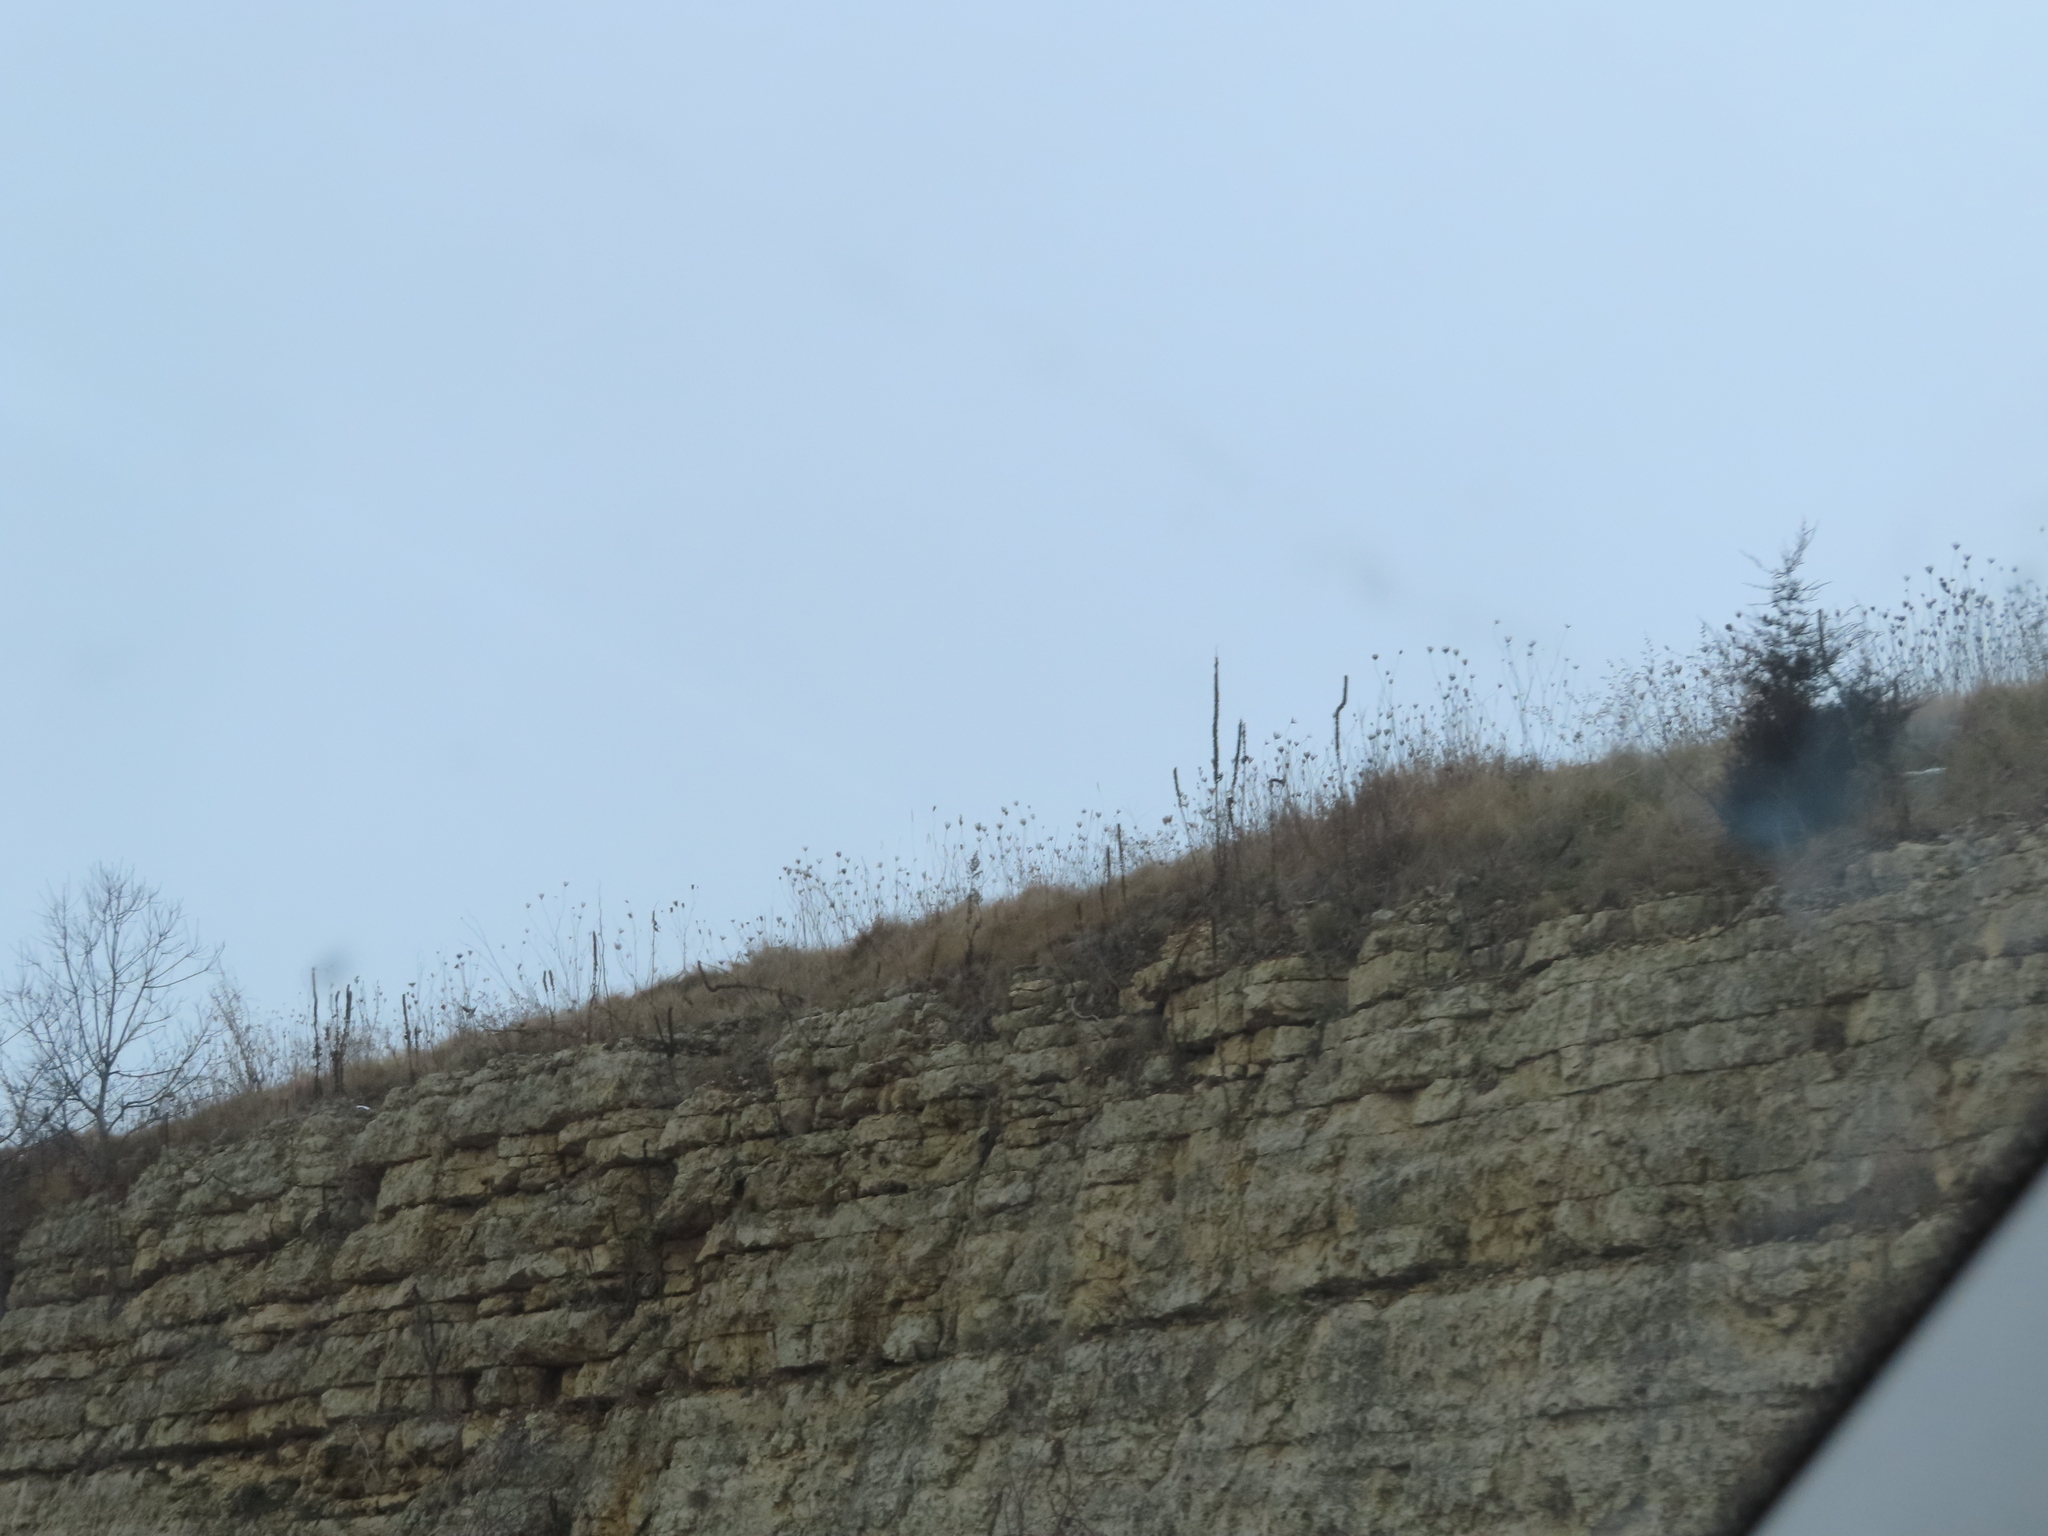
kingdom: Plantae
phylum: Tracheophyta
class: Magnoliopsida
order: Apiales
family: Apiaceae
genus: Daucus
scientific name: Daucus carota
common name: Wild carrot
